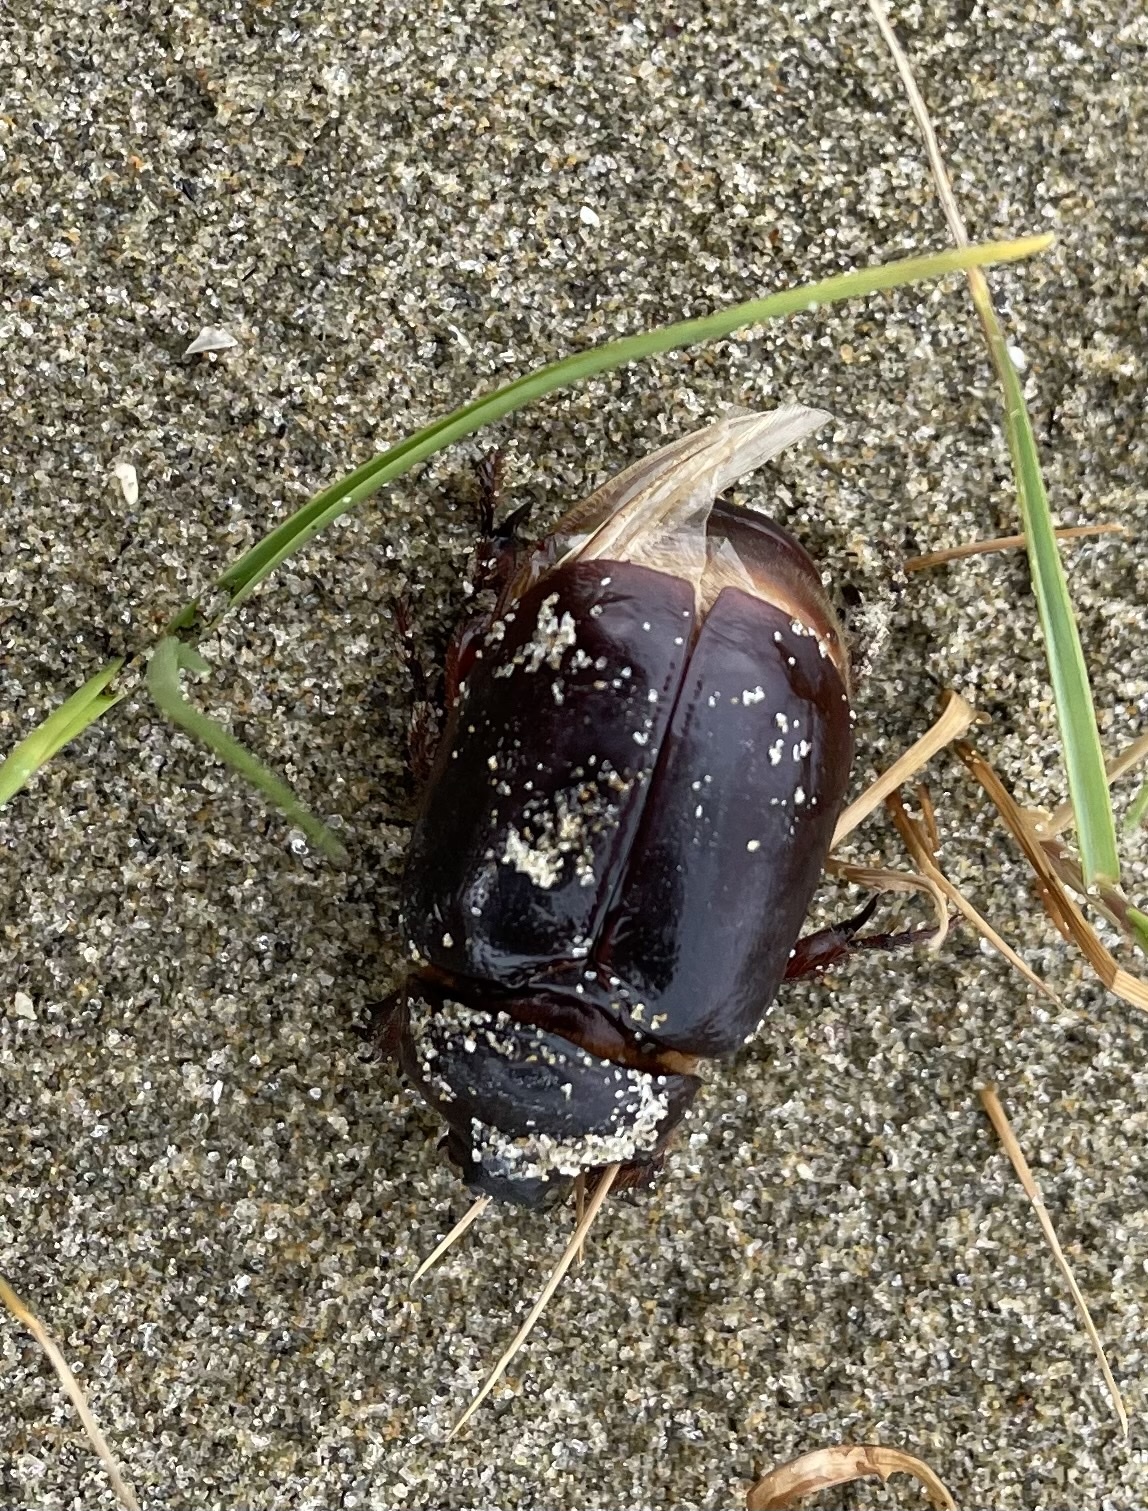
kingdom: Animalia
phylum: Arthropoda
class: Insecta
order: Coleoptera
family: Scarabaeidae
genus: Pericoptus
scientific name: Pericoptus truncatus
